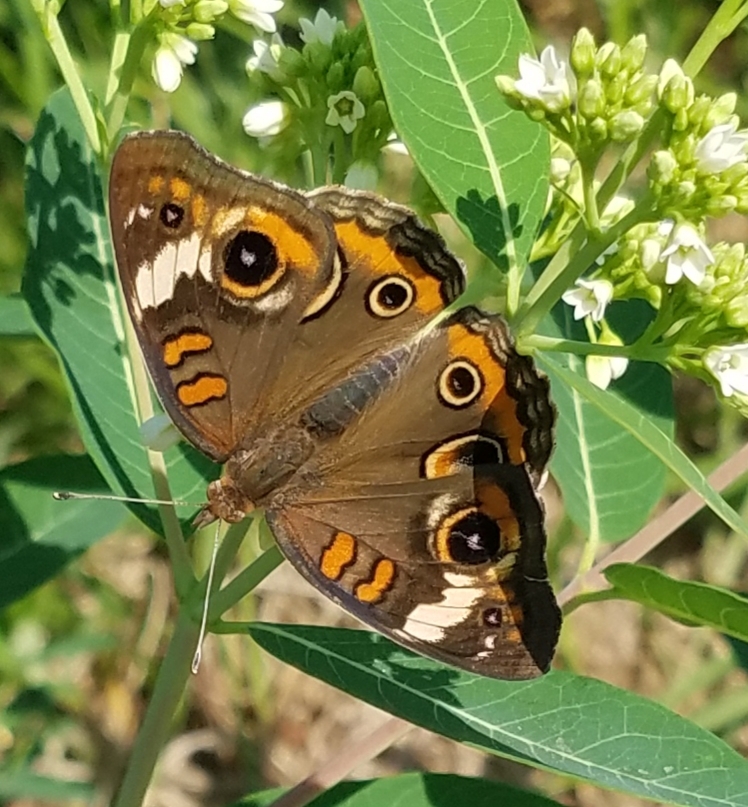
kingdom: Animalia
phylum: Arthropoda
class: Insecta
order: Lepidoptera
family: Nymphalidae
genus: Junonia
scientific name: Junonia coenia
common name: Common buckeye
